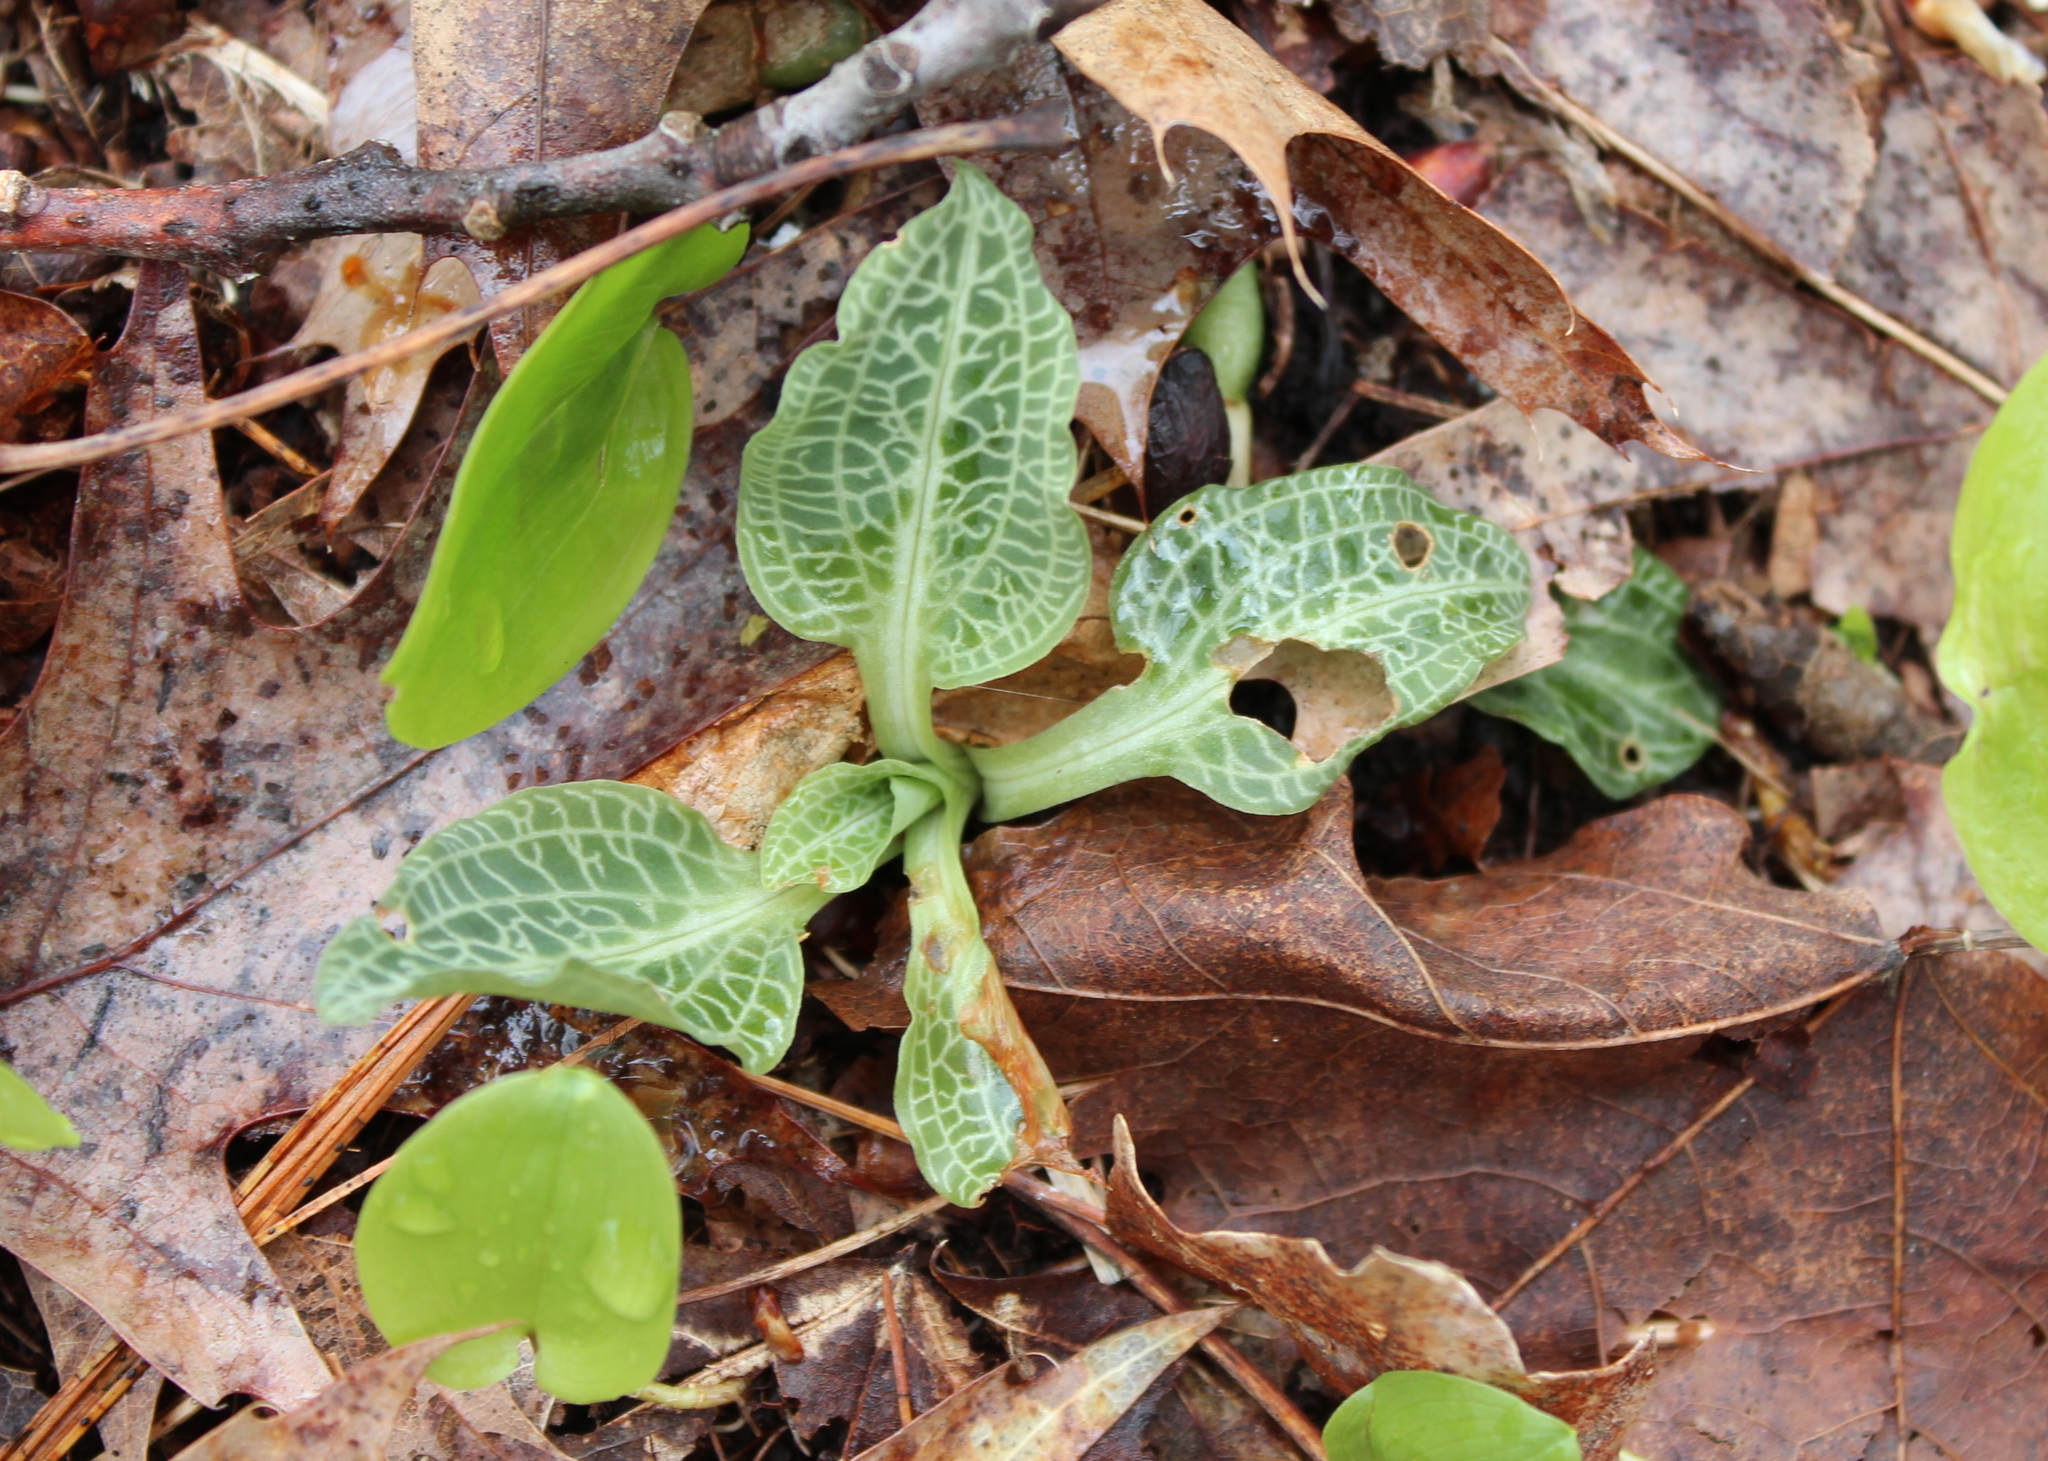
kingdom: Plantae
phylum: Tracheophyta
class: Liliopsida
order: Asparagales
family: Orchidaceae
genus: Goodyera
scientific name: Goodyera pubescens
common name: Downy rattlesnake-plantain
